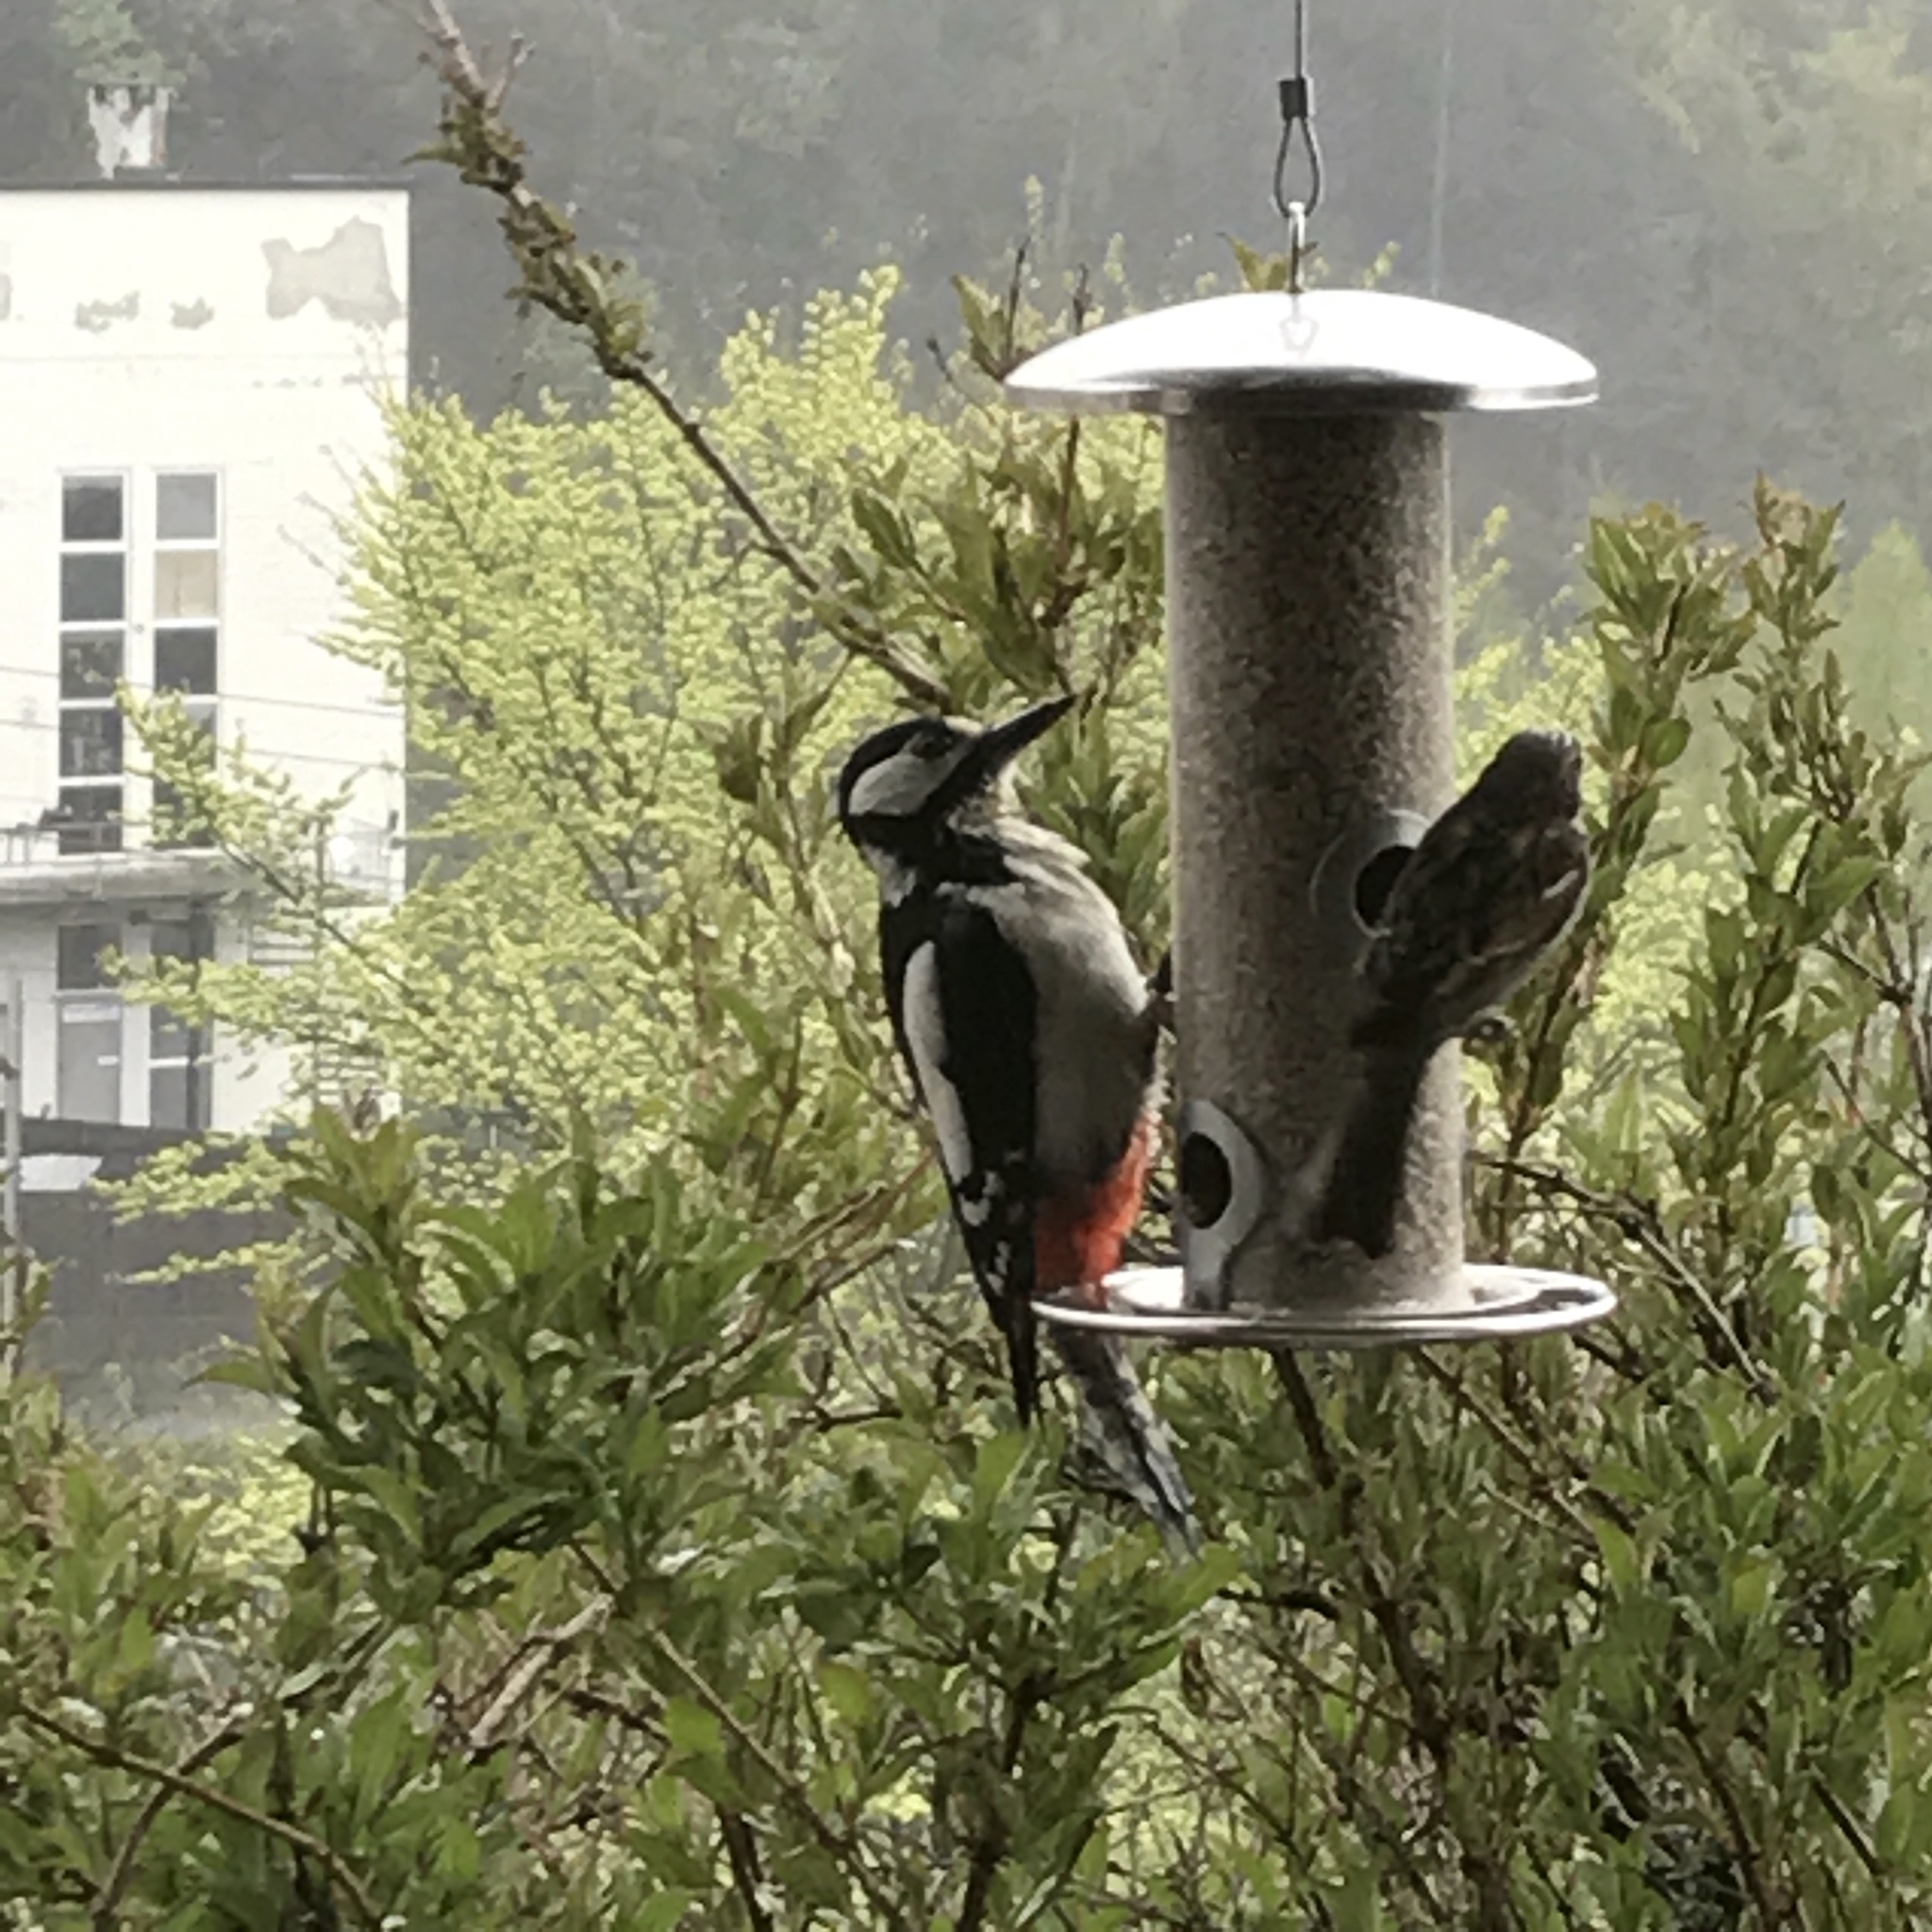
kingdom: Animalia
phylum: Chordata
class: Aves
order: Piciformes
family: Picidae
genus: Dendrocopos
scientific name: Dendrocopos major
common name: Great spotted woodpecker
